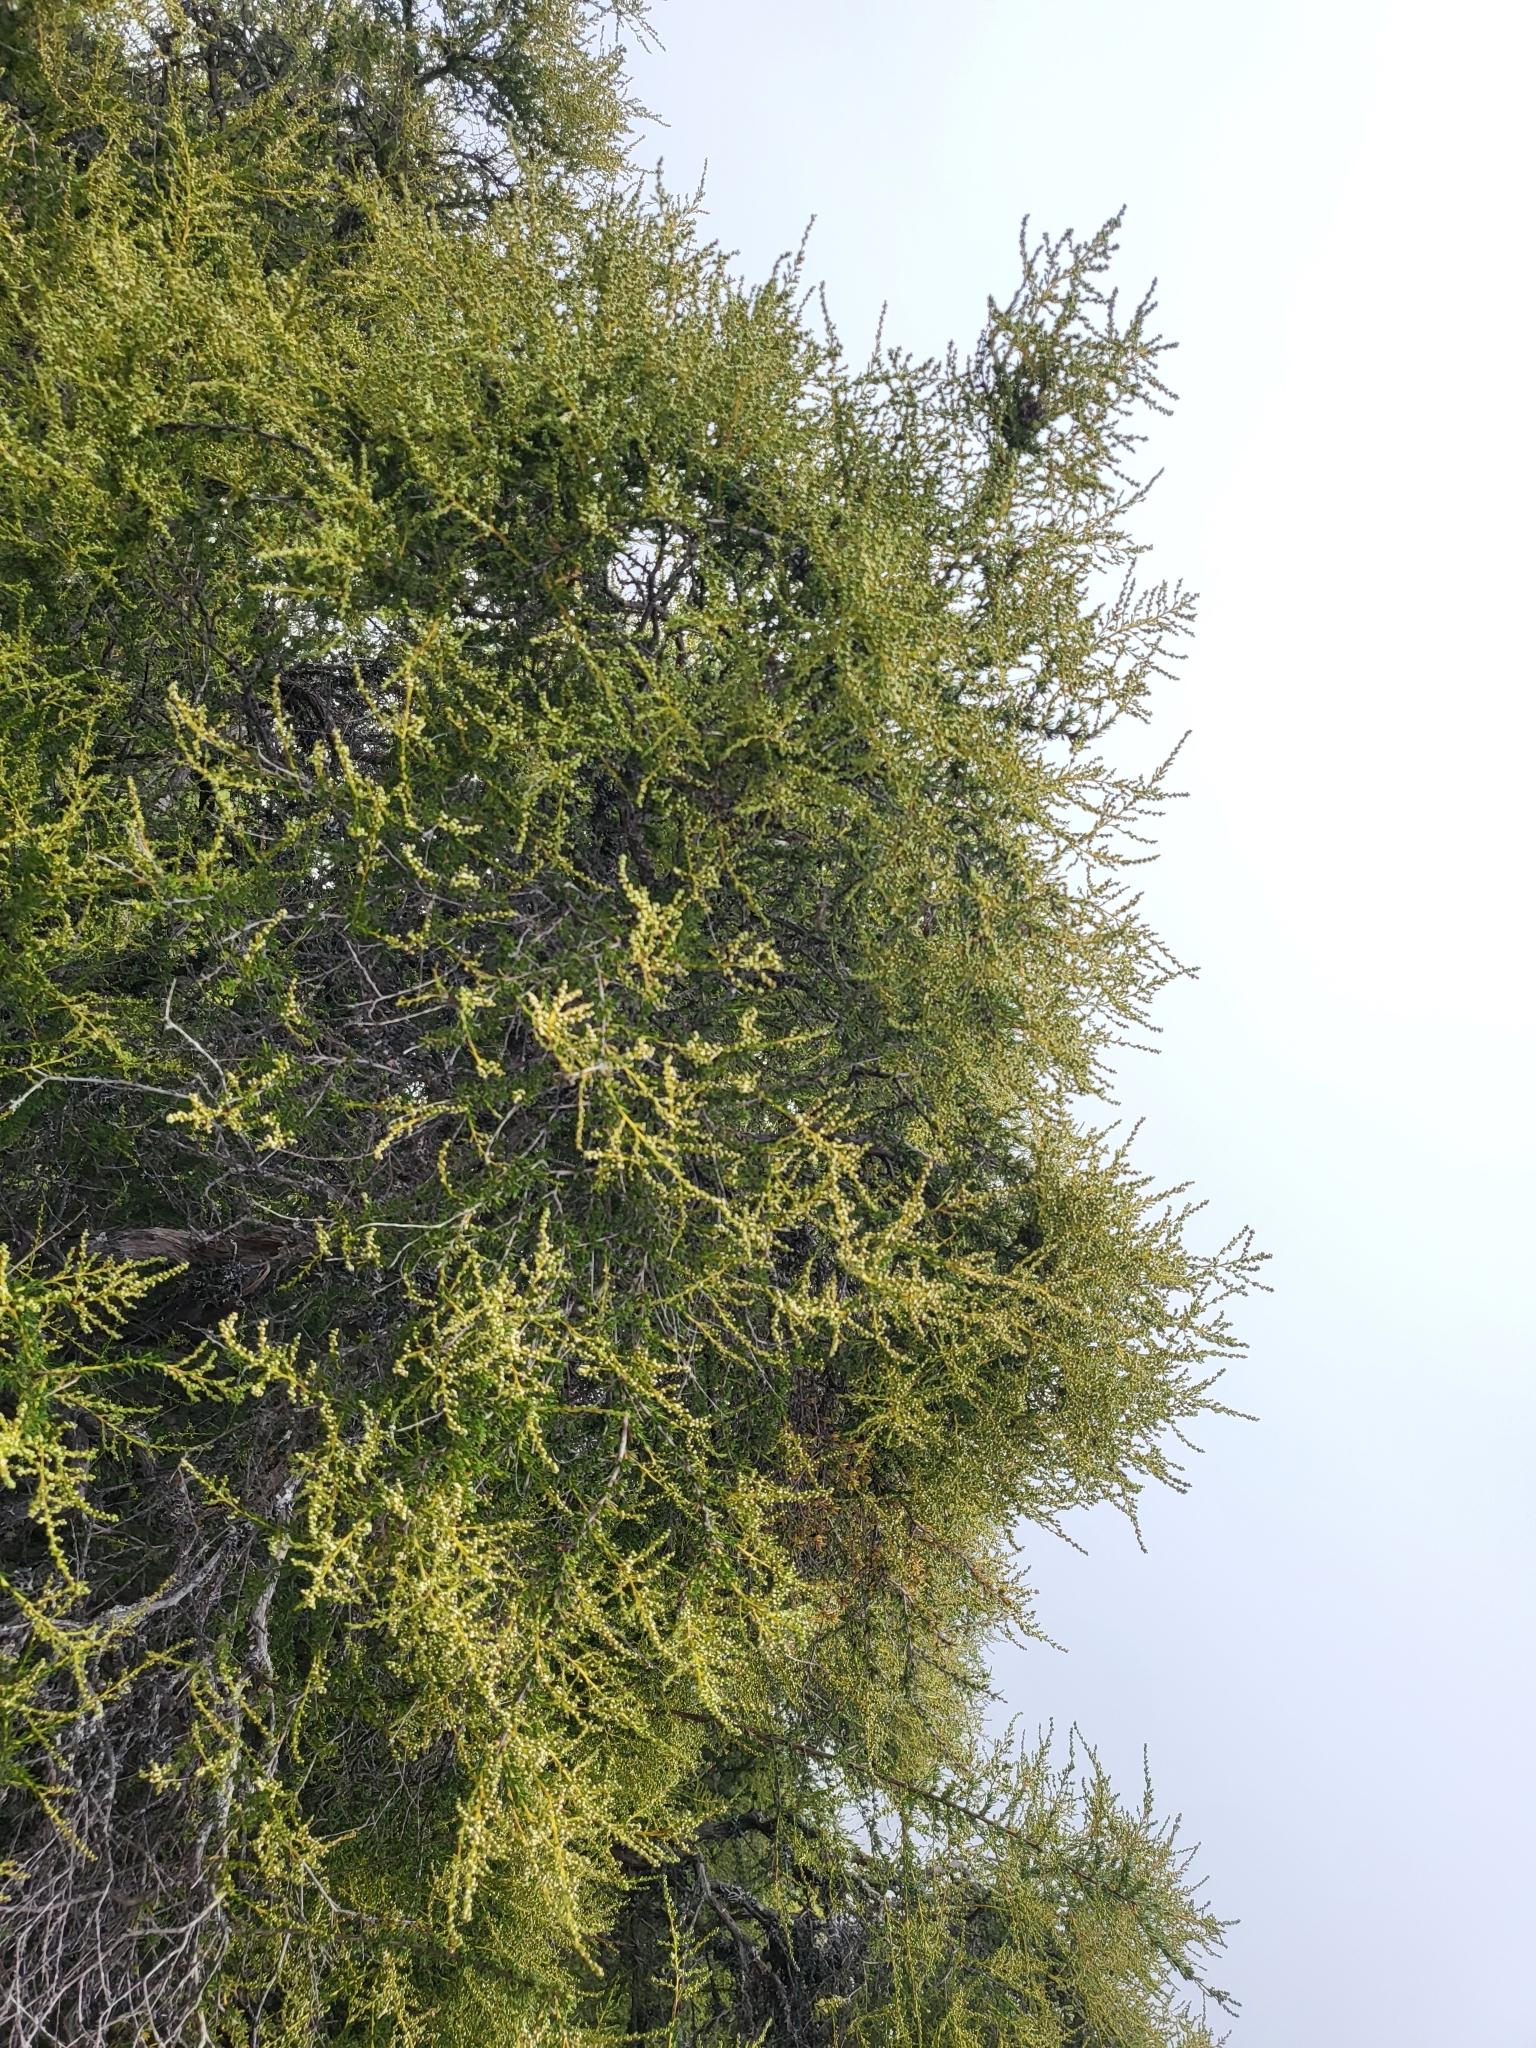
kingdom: Plantae
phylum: Tracheophyta
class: Magnoliopsida
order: Rosales
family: Rosaceae
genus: Adenostoma
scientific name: Adenostoma fasciculatum
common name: Chamise
